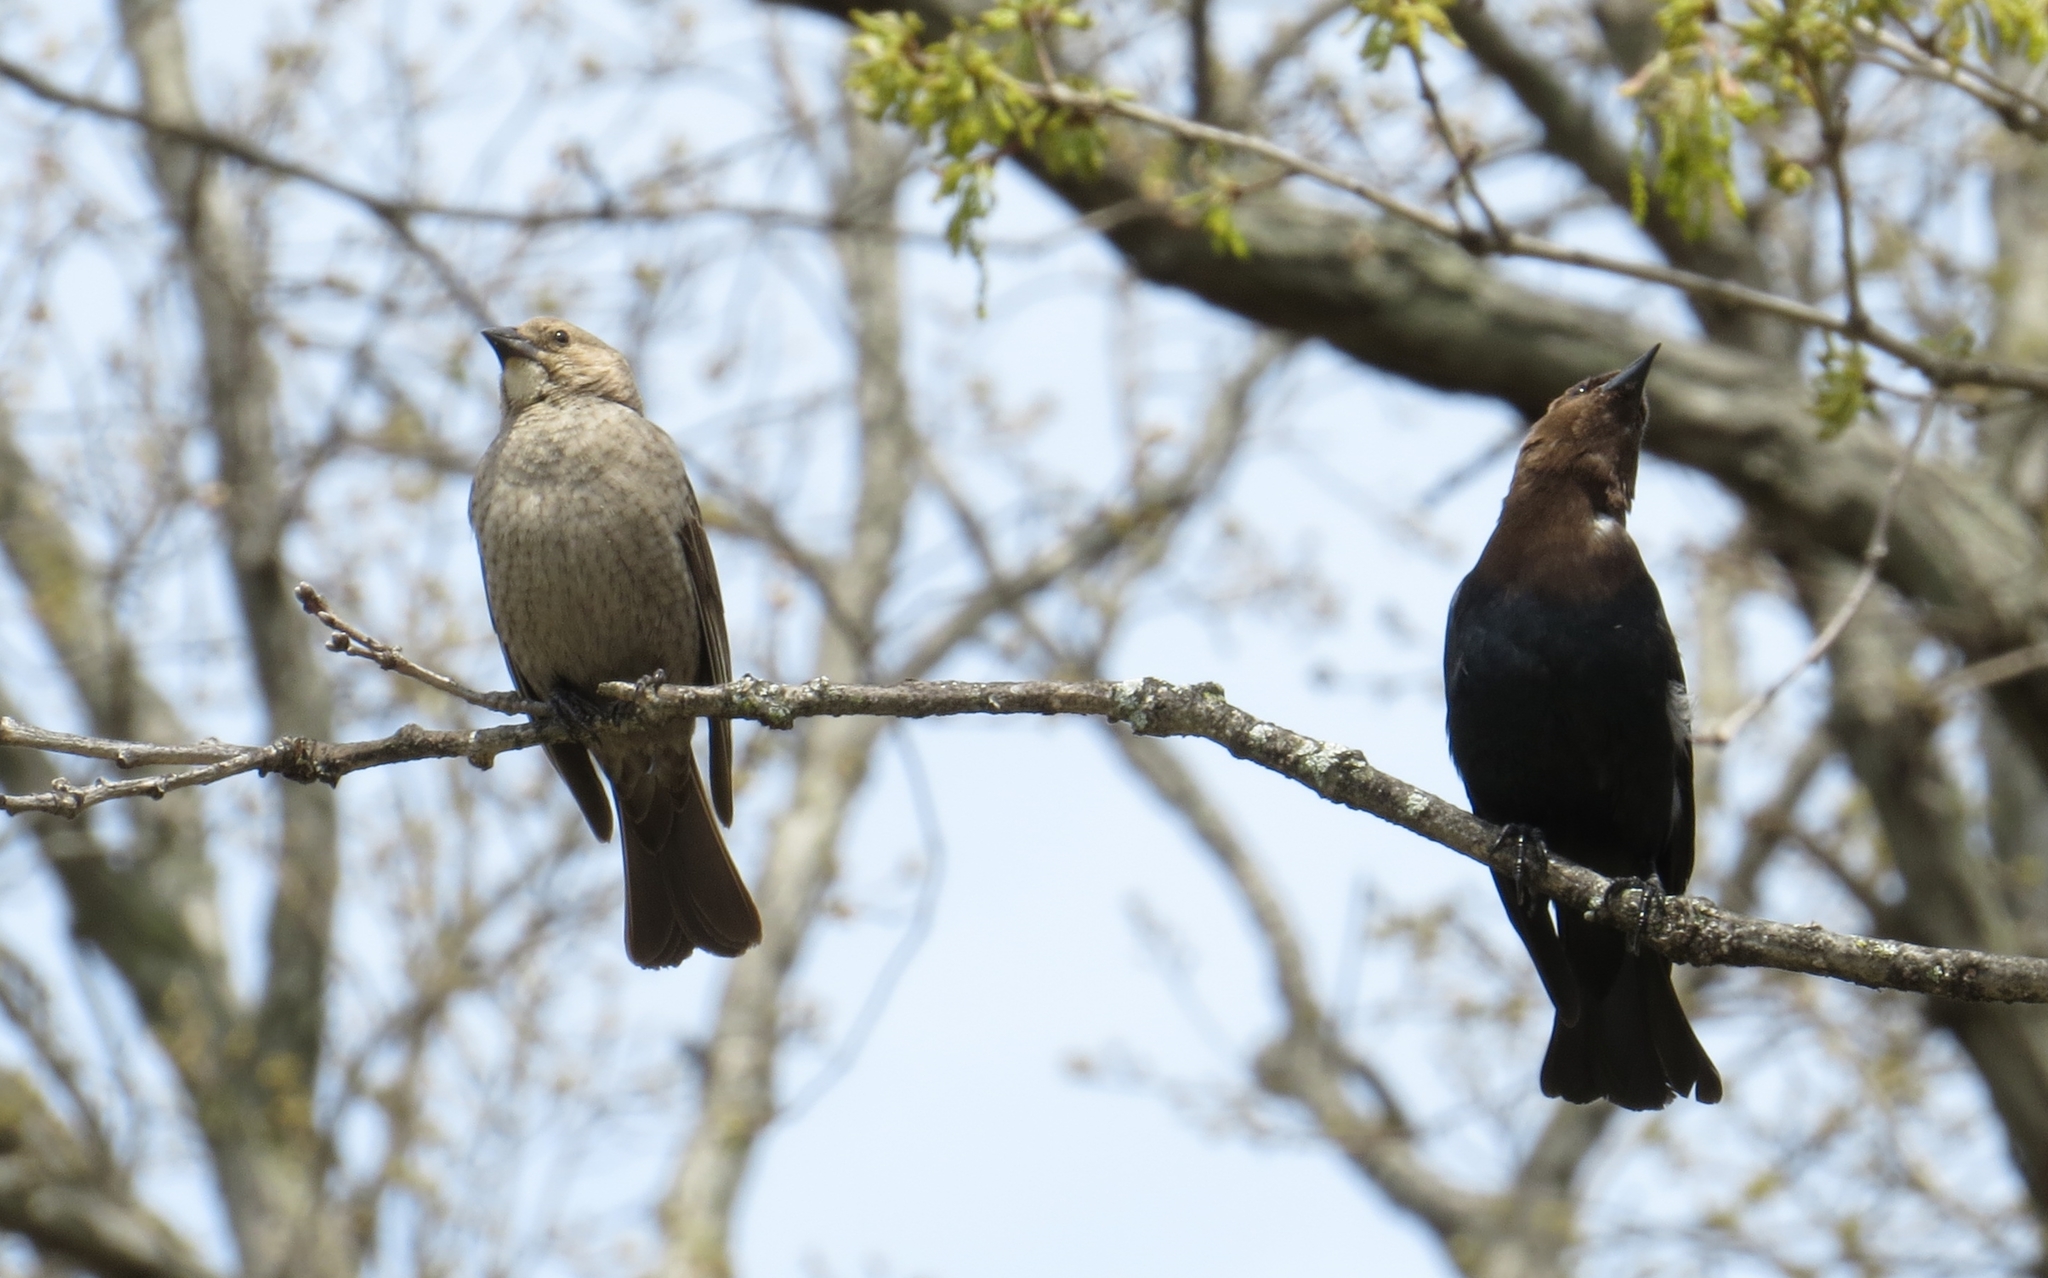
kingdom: Animalia
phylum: Chordata
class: Aves
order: Passeriformes
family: Icteridae
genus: Molothrus
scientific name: Molothrus ater
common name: Brown-headed cowbird
